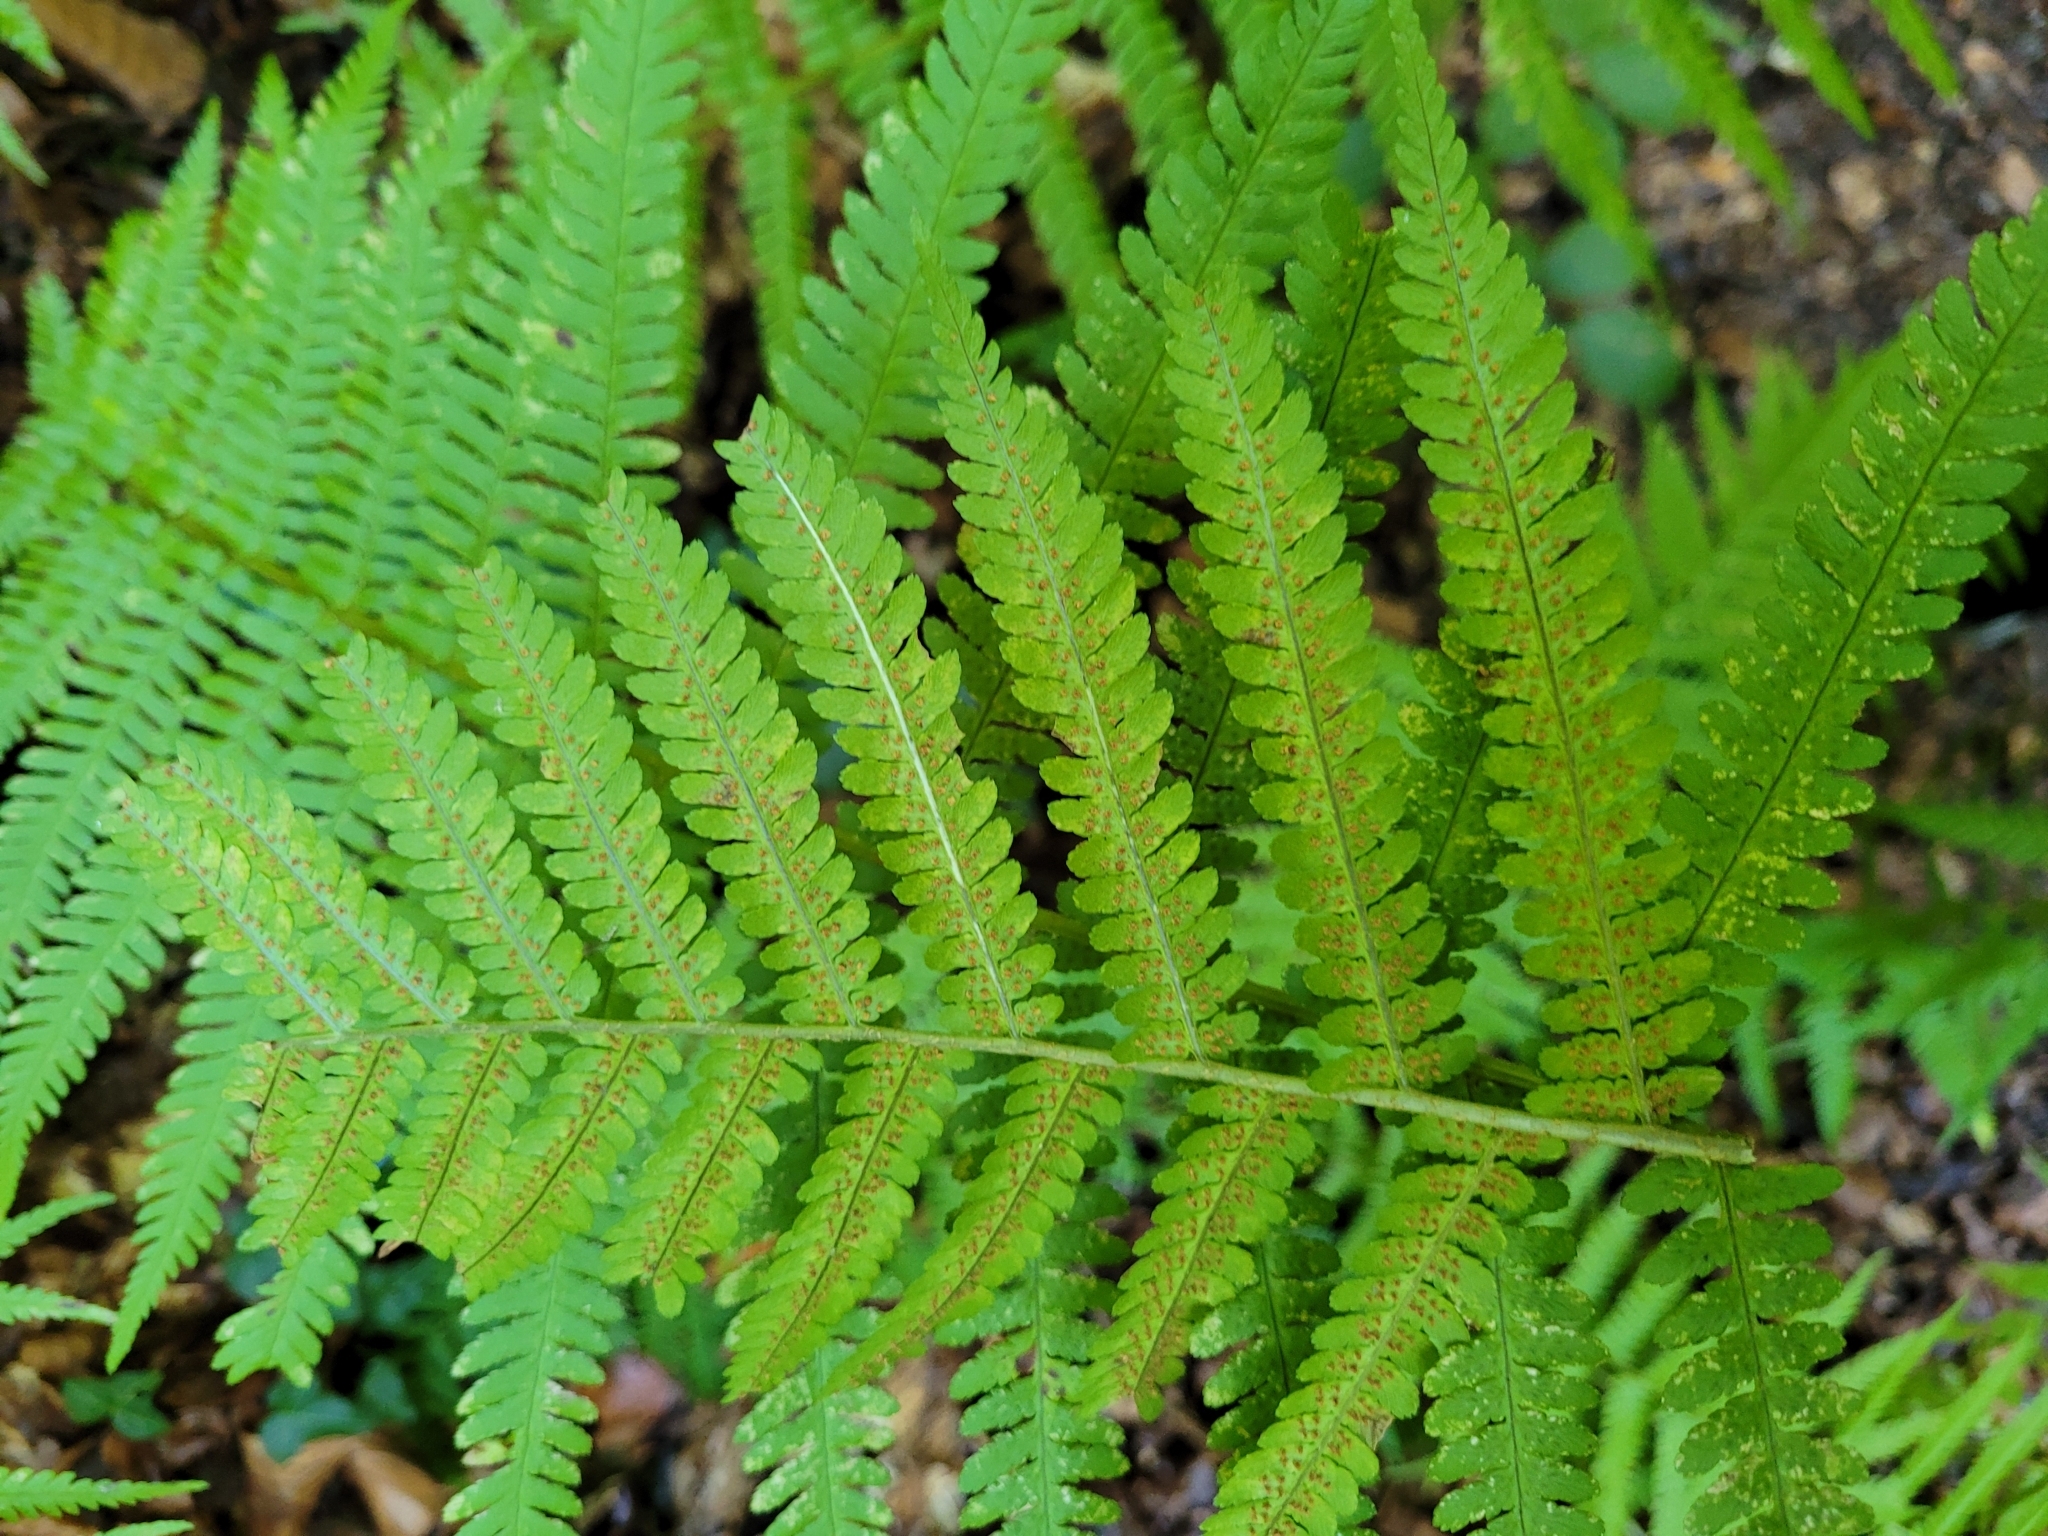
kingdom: Plantae
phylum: Tracheophyta
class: Polypodiopsida
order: Polypodiales
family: Dryopteridaceae
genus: Dryopteris
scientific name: Dryopteris filix-mas
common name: Male fern
